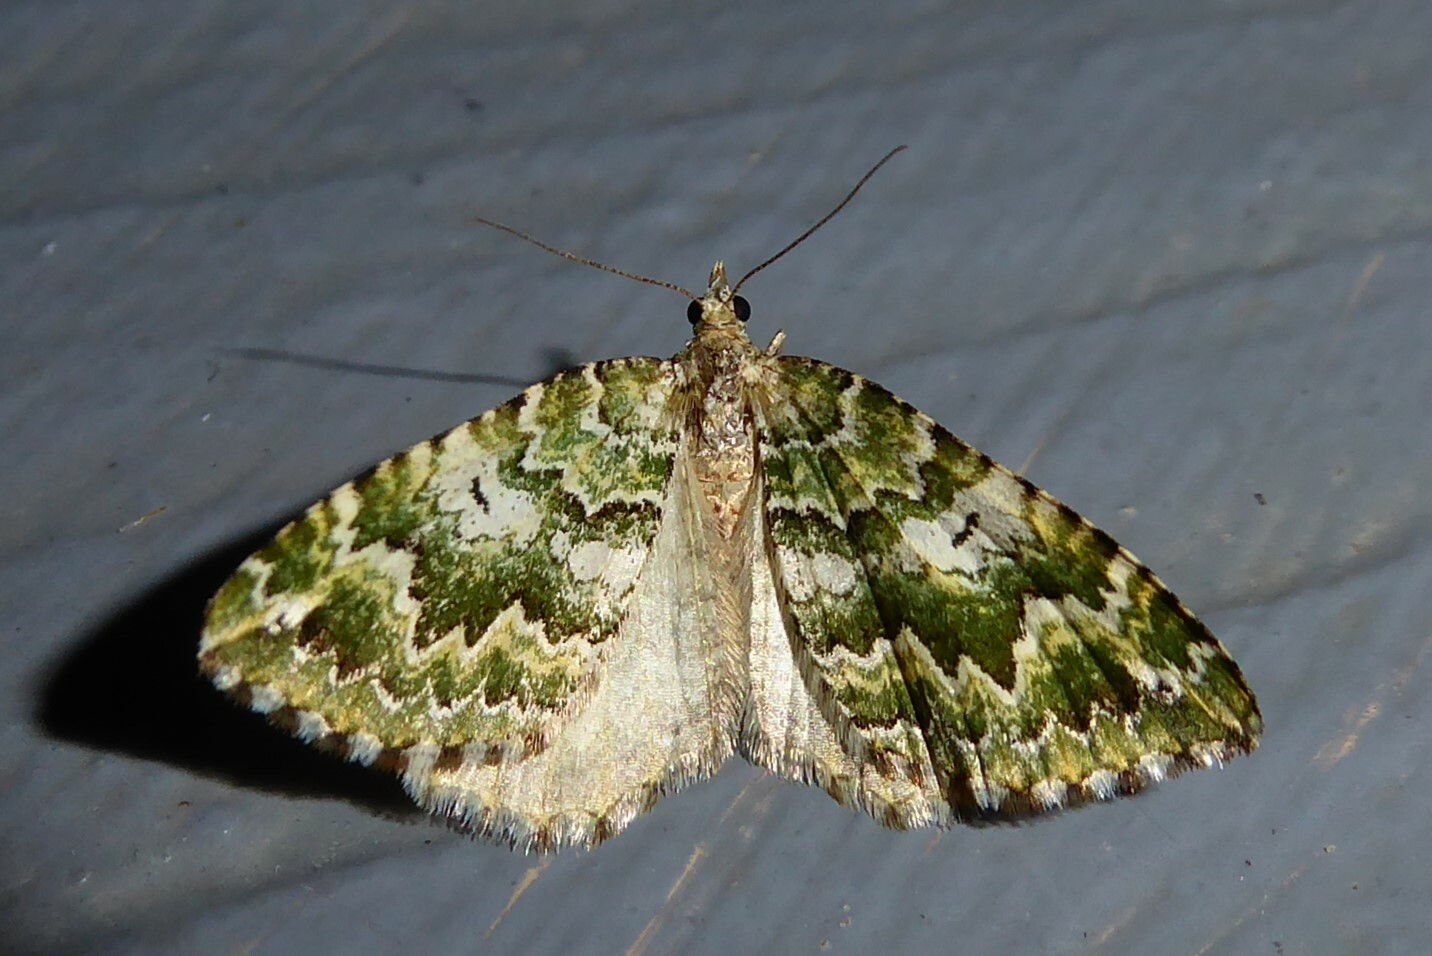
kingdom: Animalia
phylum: Arthropoda
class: Insecta
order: Lepidoptera
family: Geometridae
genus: Asaphodes
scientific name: Asaphodes beata
